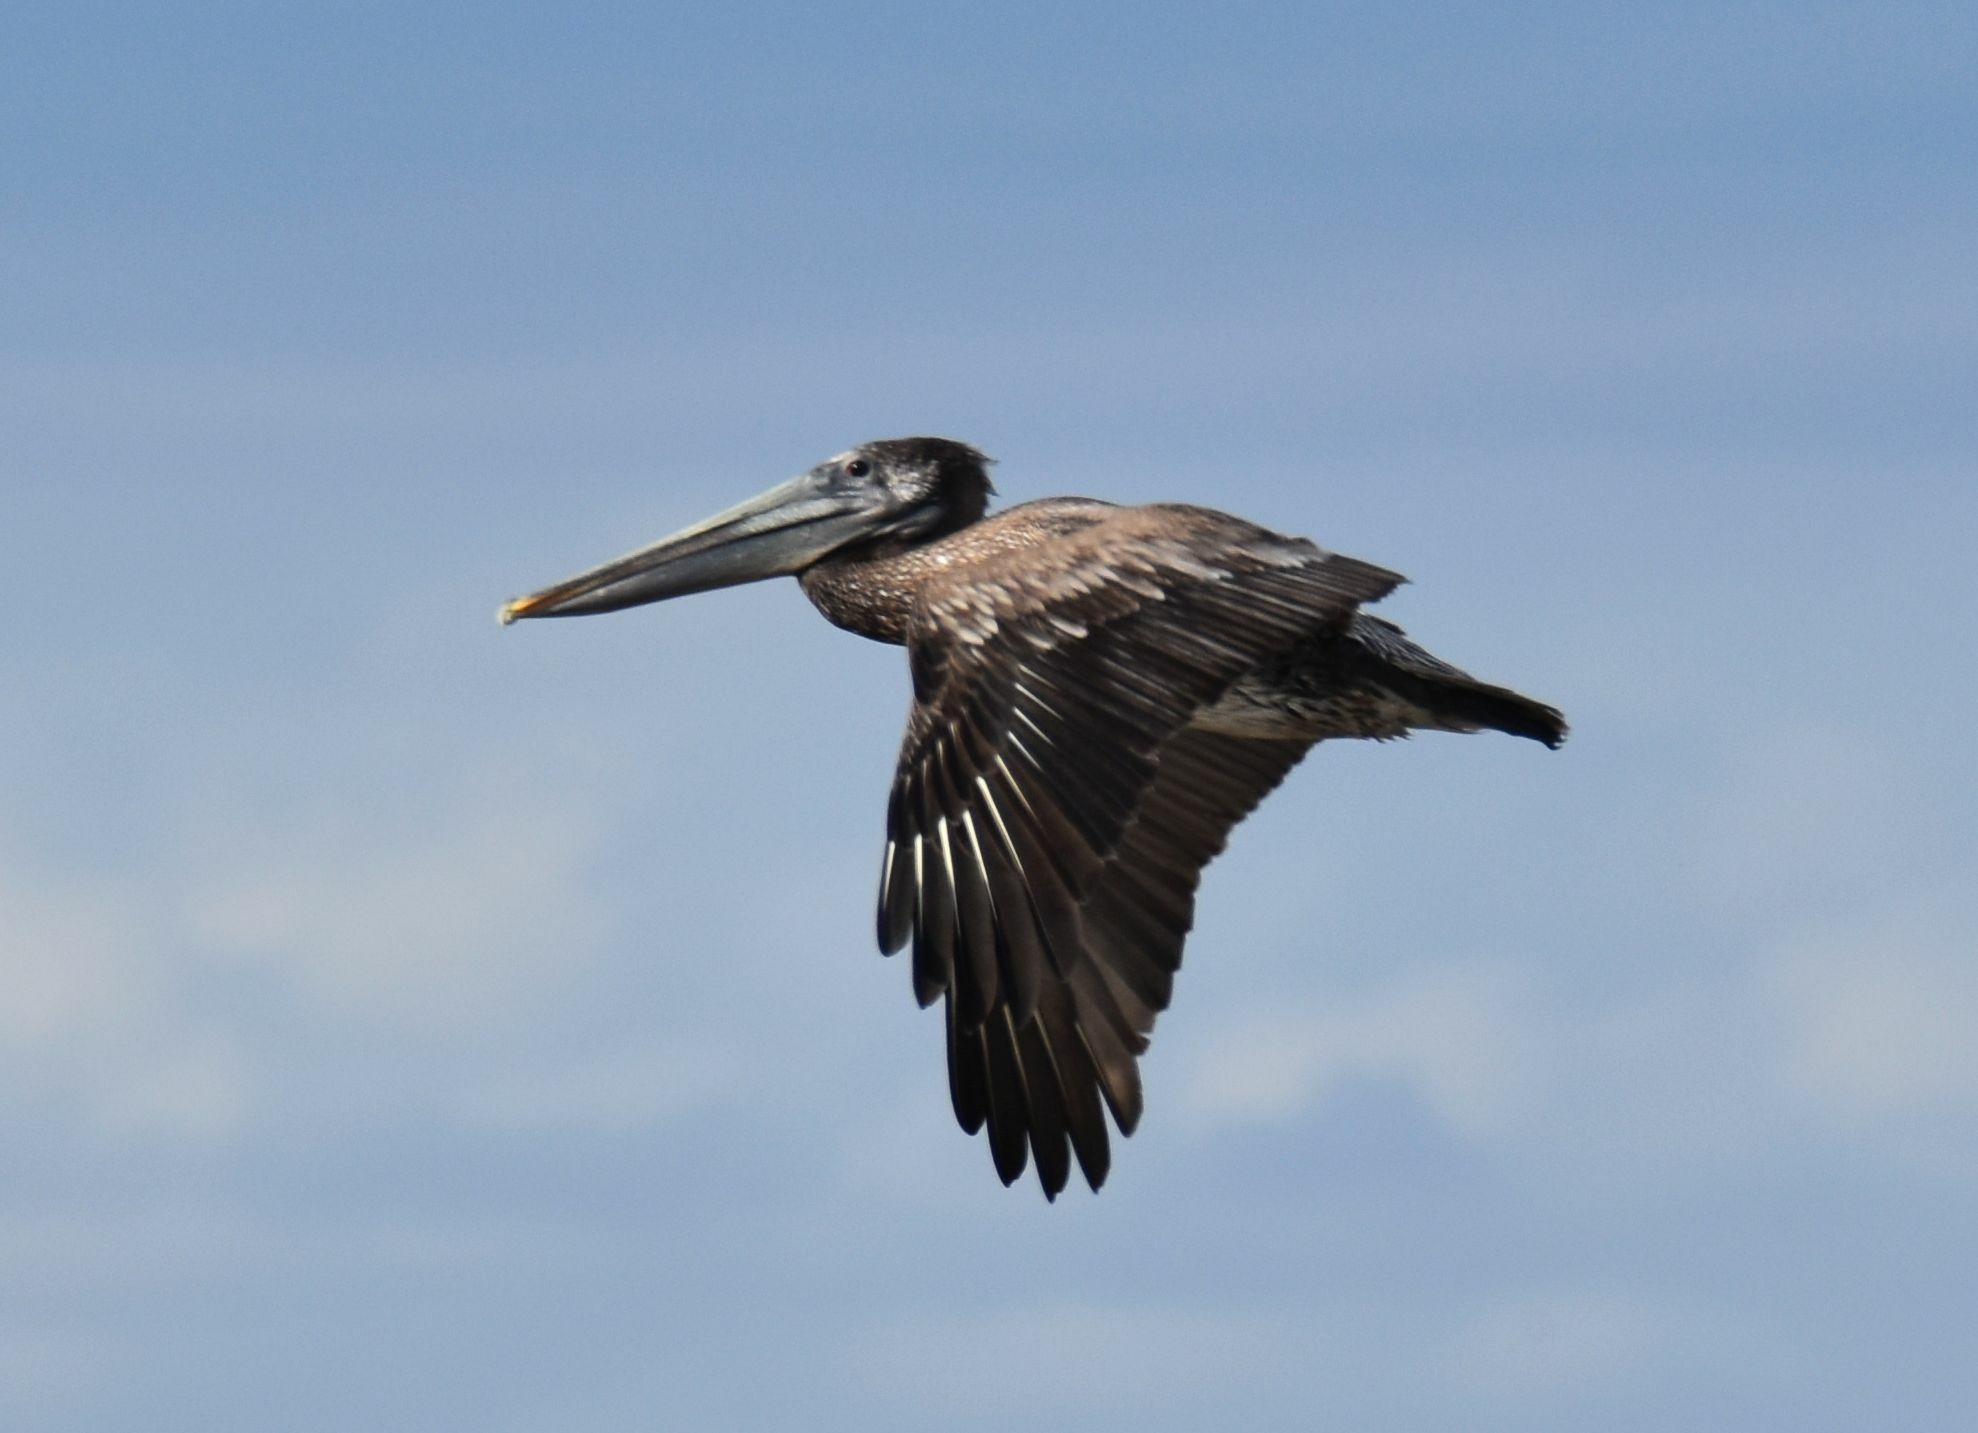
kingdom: Animalia
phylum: Chordata
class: Aves
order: Pelecaniformes
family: Pelecanidae
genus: Pelecanus
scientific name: Pelecanus occidentalis
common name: Brown pelican
